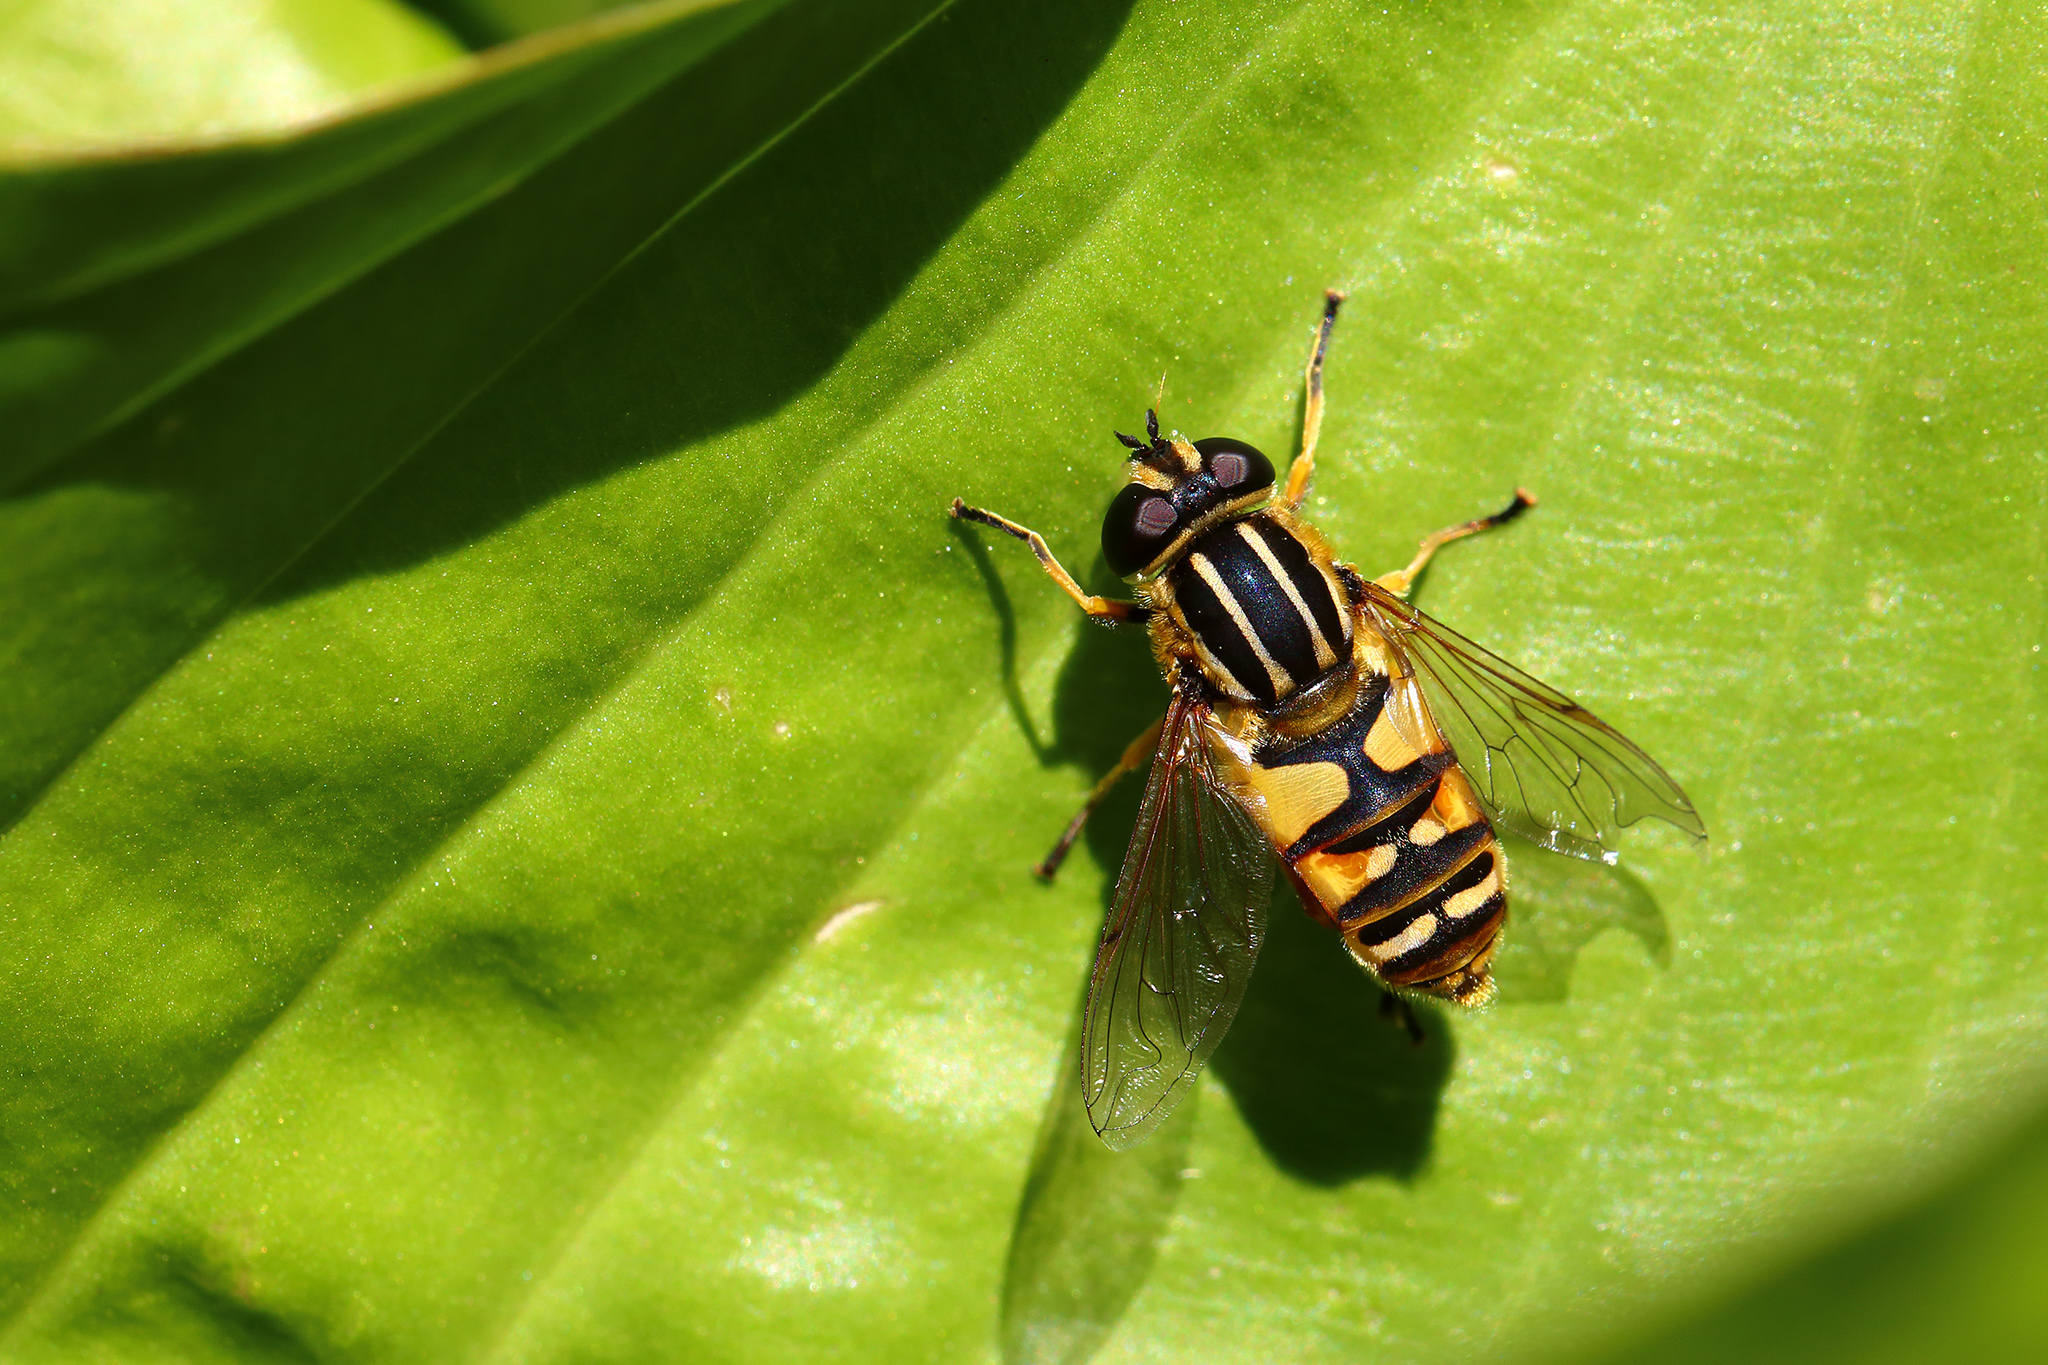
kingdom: Animalia
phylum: Arthropoda
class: Insecta
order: Diptera
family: Syrphidae
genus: Helophilus
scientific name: Helophilus pendulus
